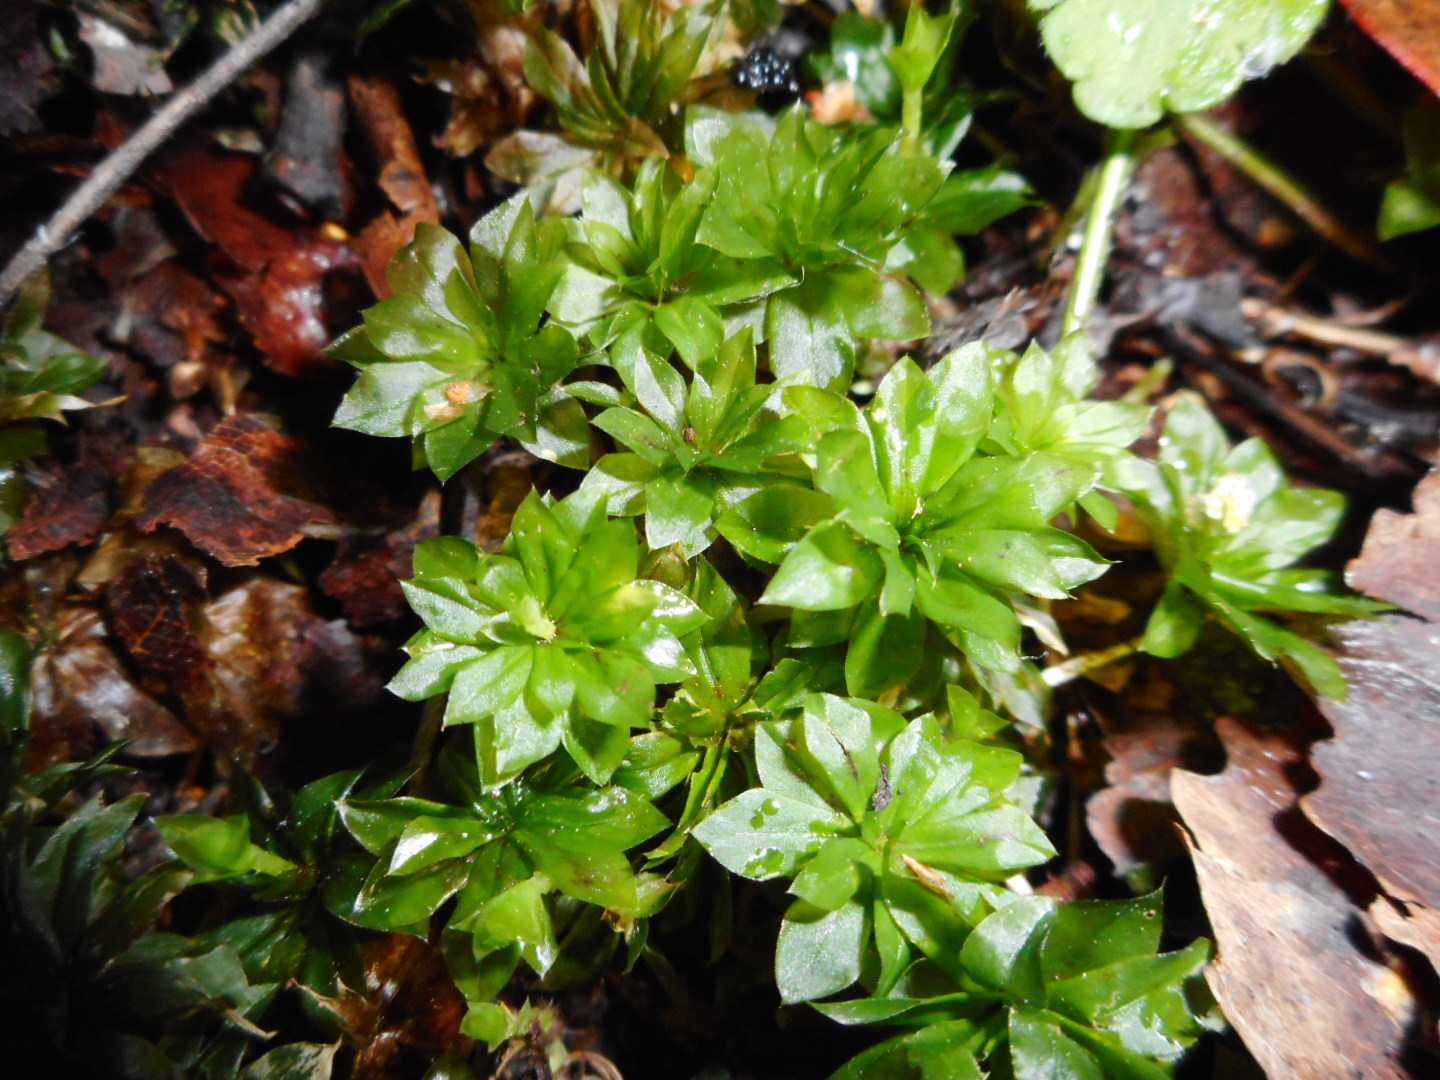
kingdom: Plantae
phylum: Bryophyta
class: Bryopsida
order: Bryales
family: Bryaceae
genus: Rhodobryum
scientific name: Rhodobryum roseum
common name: Rose-moss
